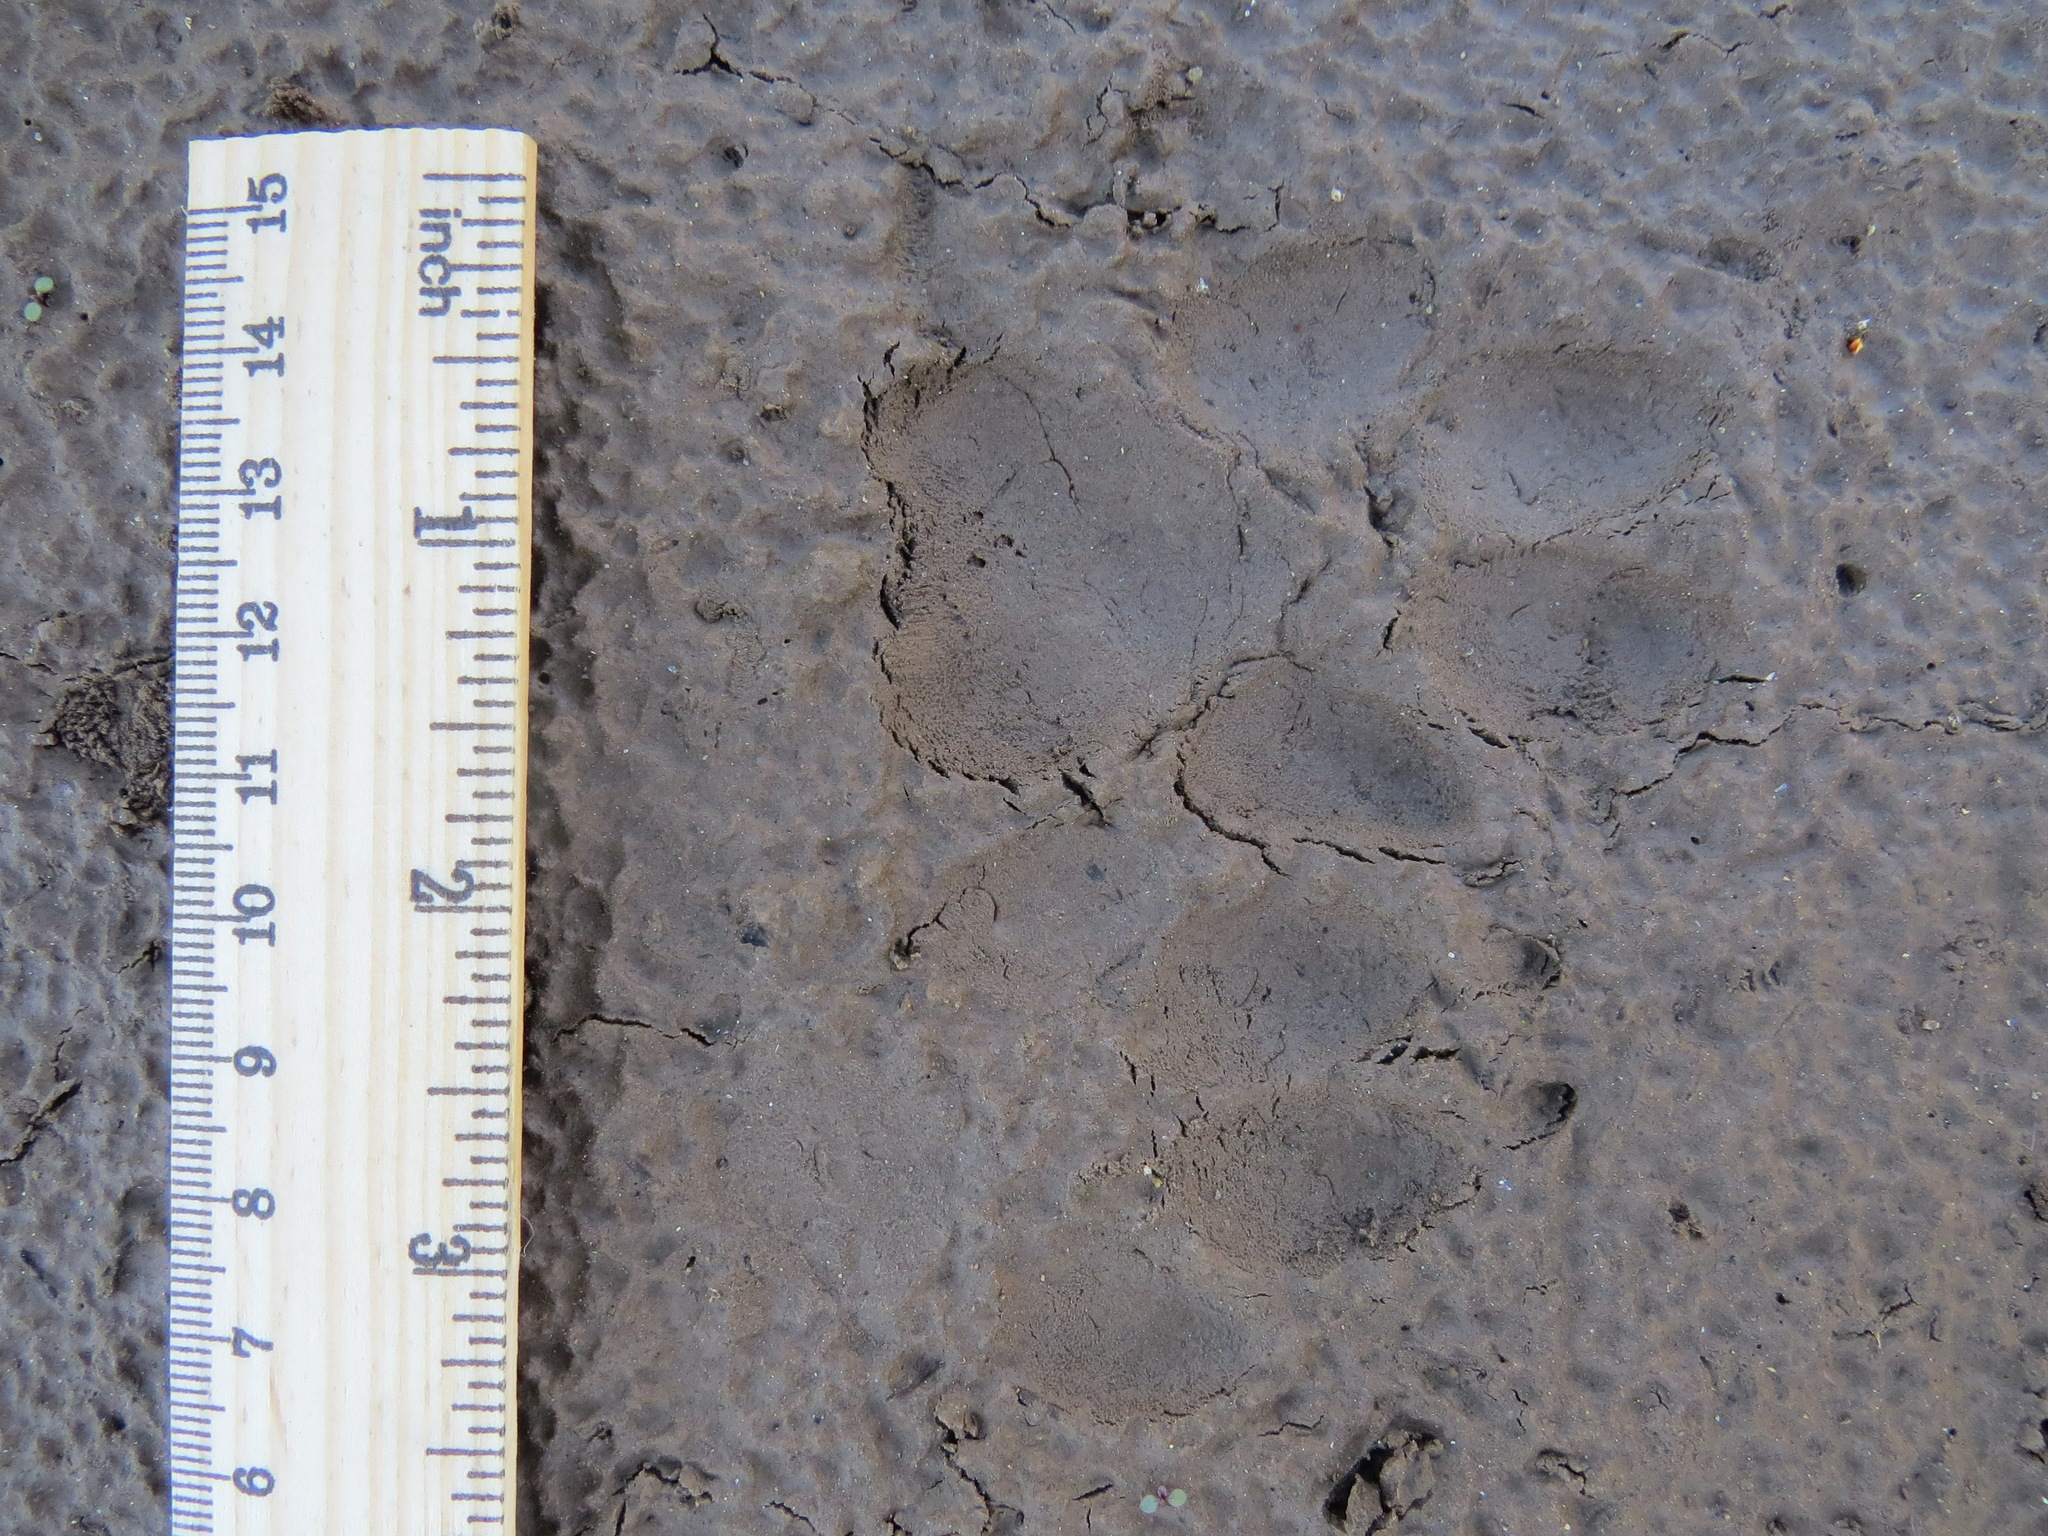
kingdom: Animalia
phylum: Chordata
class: Mammalia
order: Carnivora
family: Canidae
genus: Canis
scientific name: Canis latrans
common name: Coyote
